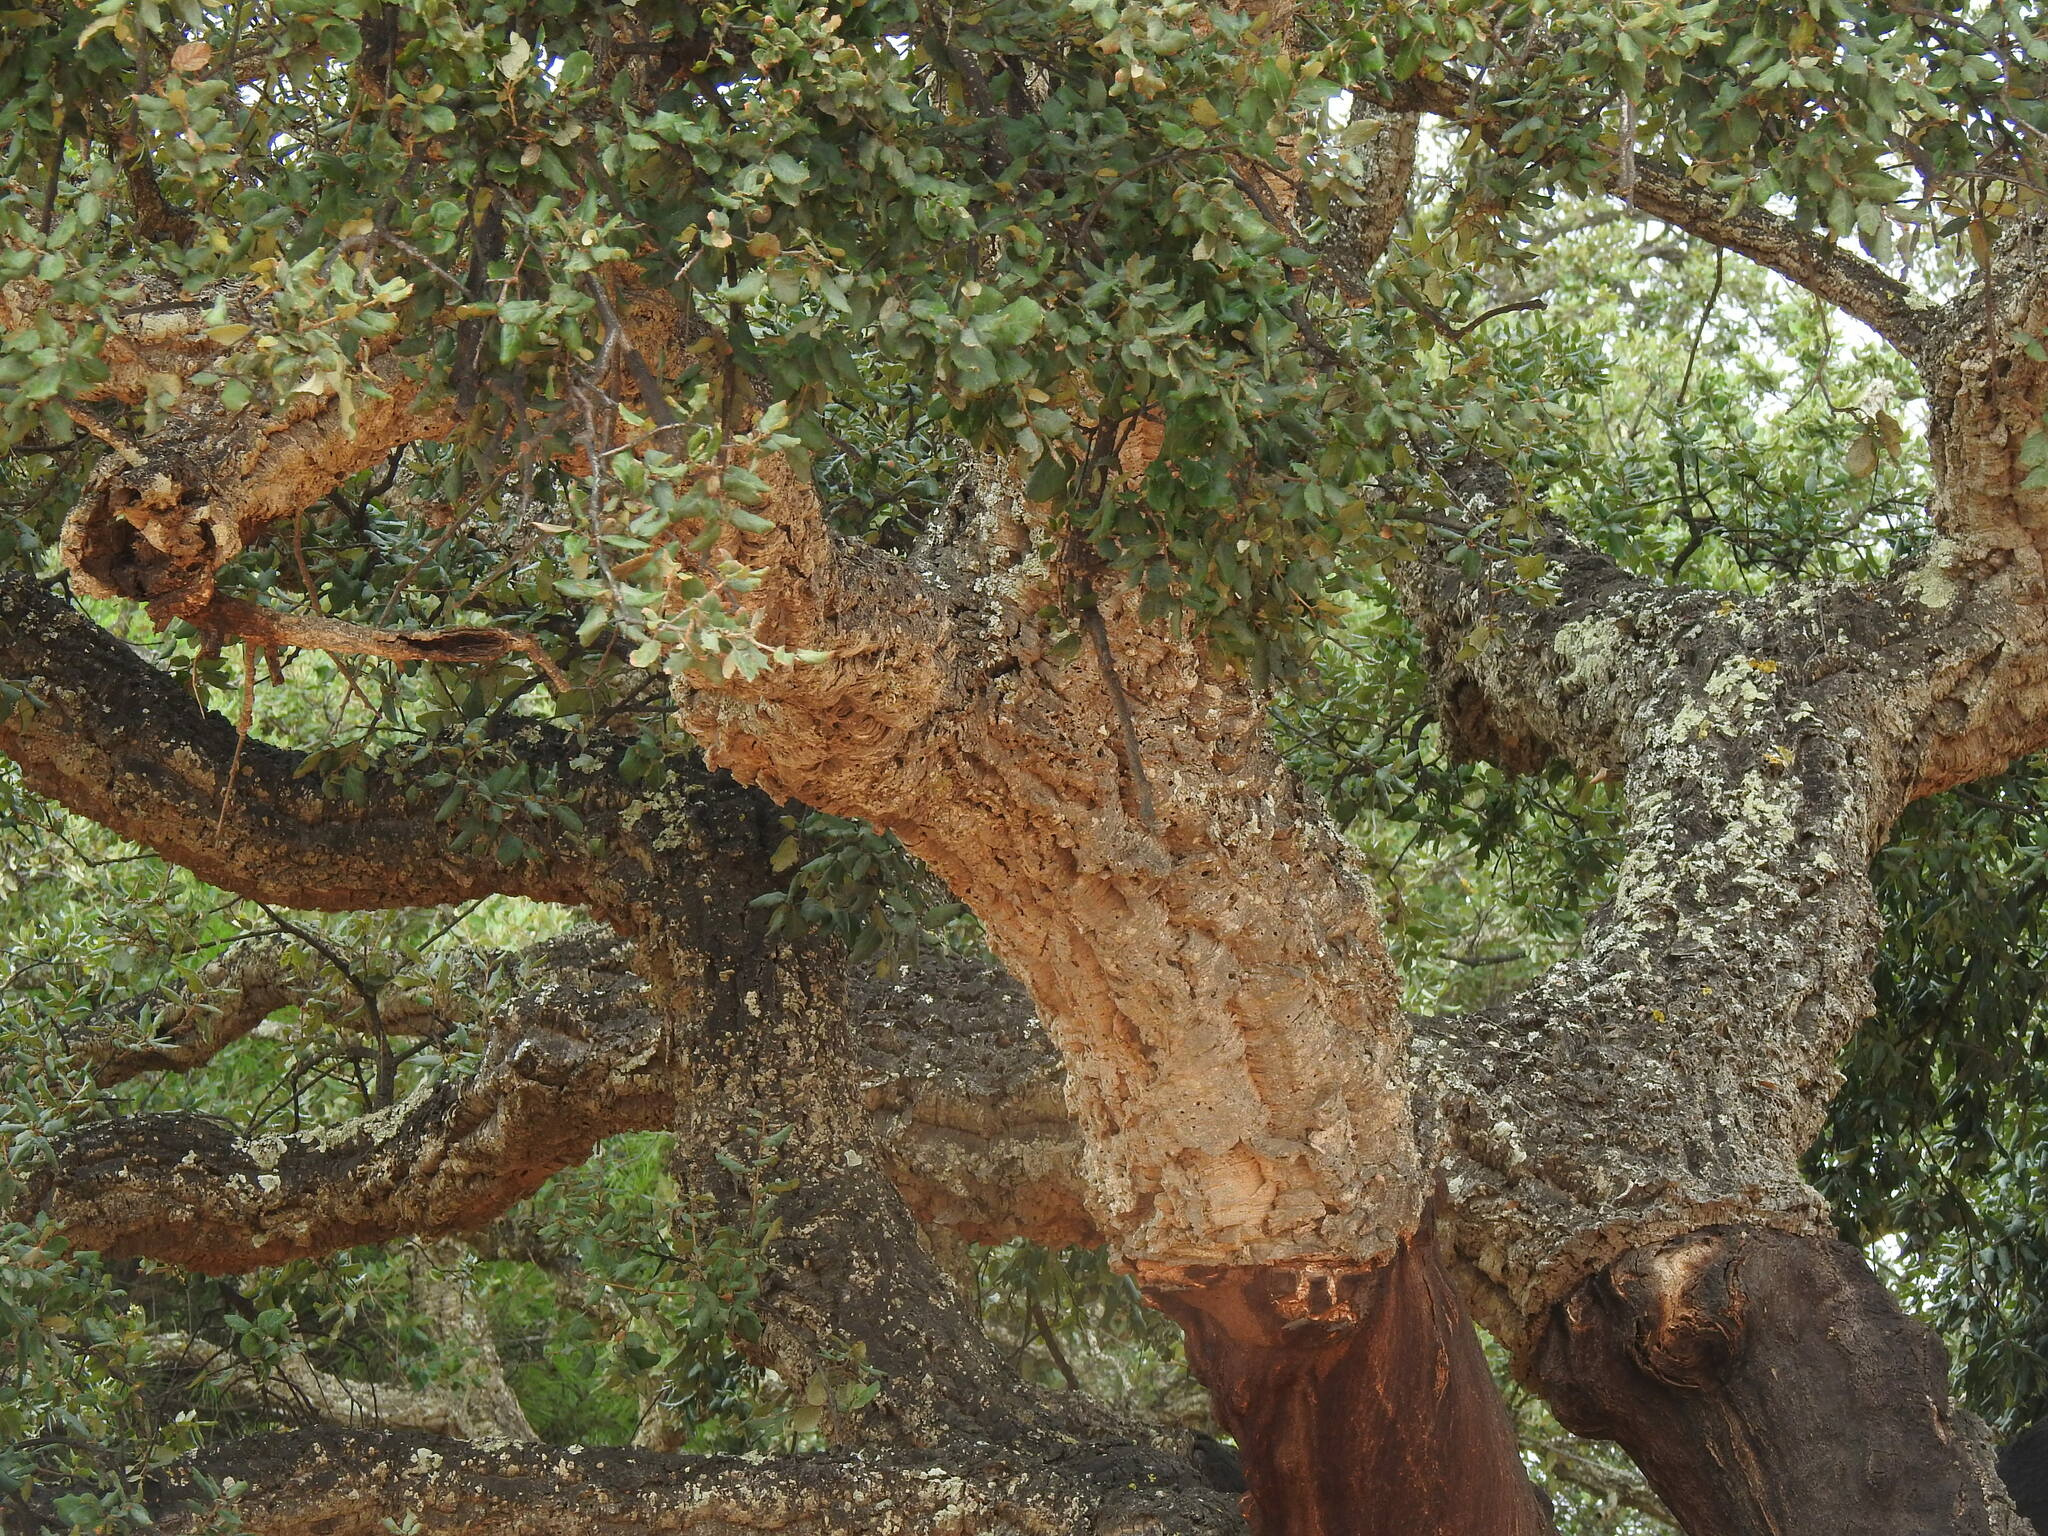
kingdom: Plantae
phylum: Tracheophyta
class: Magnoliopsida
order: Fagales
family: Fagaceae
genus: Quercus
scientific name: Quercus suber
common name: Cork oak
